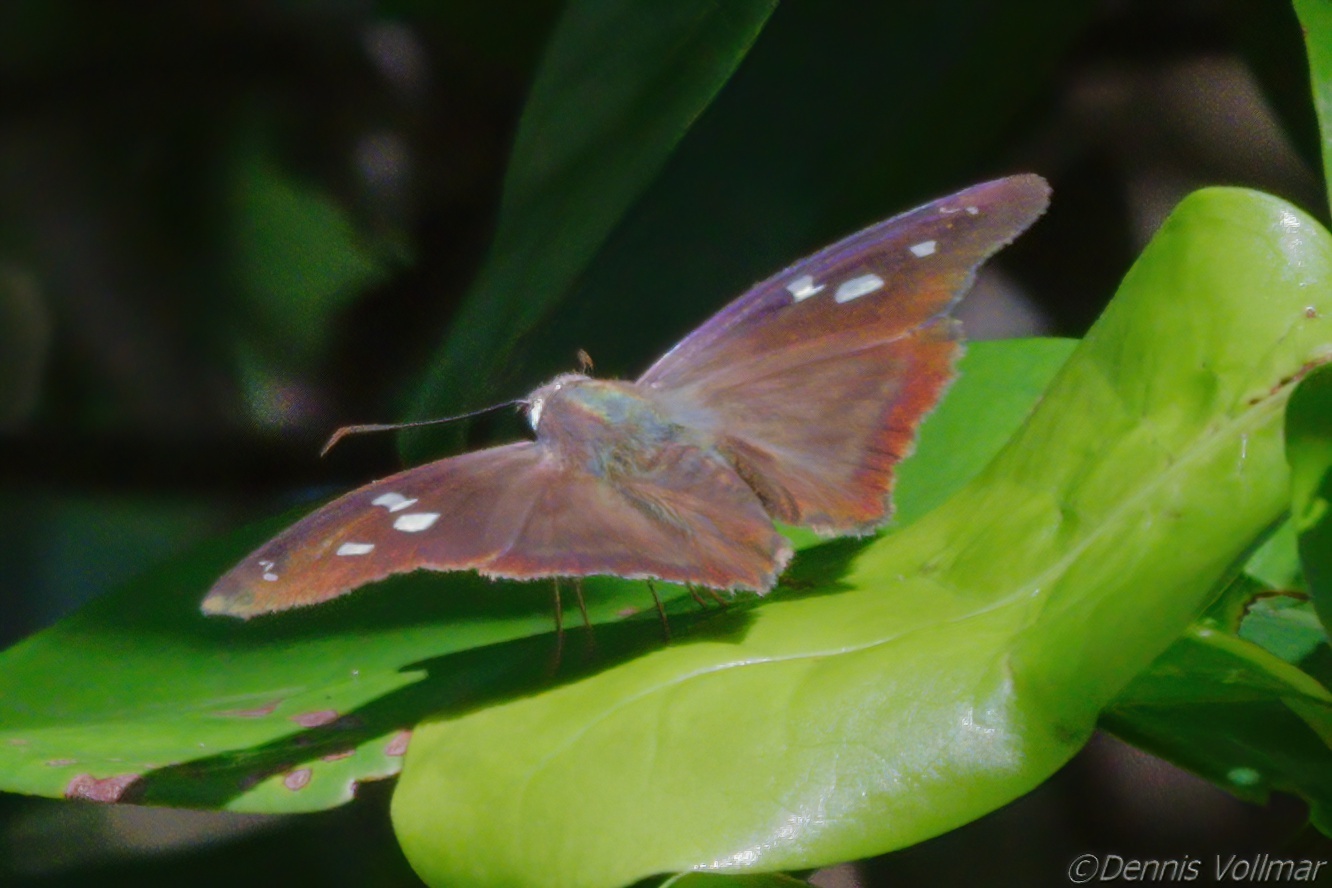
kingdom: Animalia
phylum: Arthropoda
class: Insecta
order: Lepidoptera
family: Hesperiidae
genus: Polygonus
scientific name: Polygonus leo
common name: Hammoch skipper
